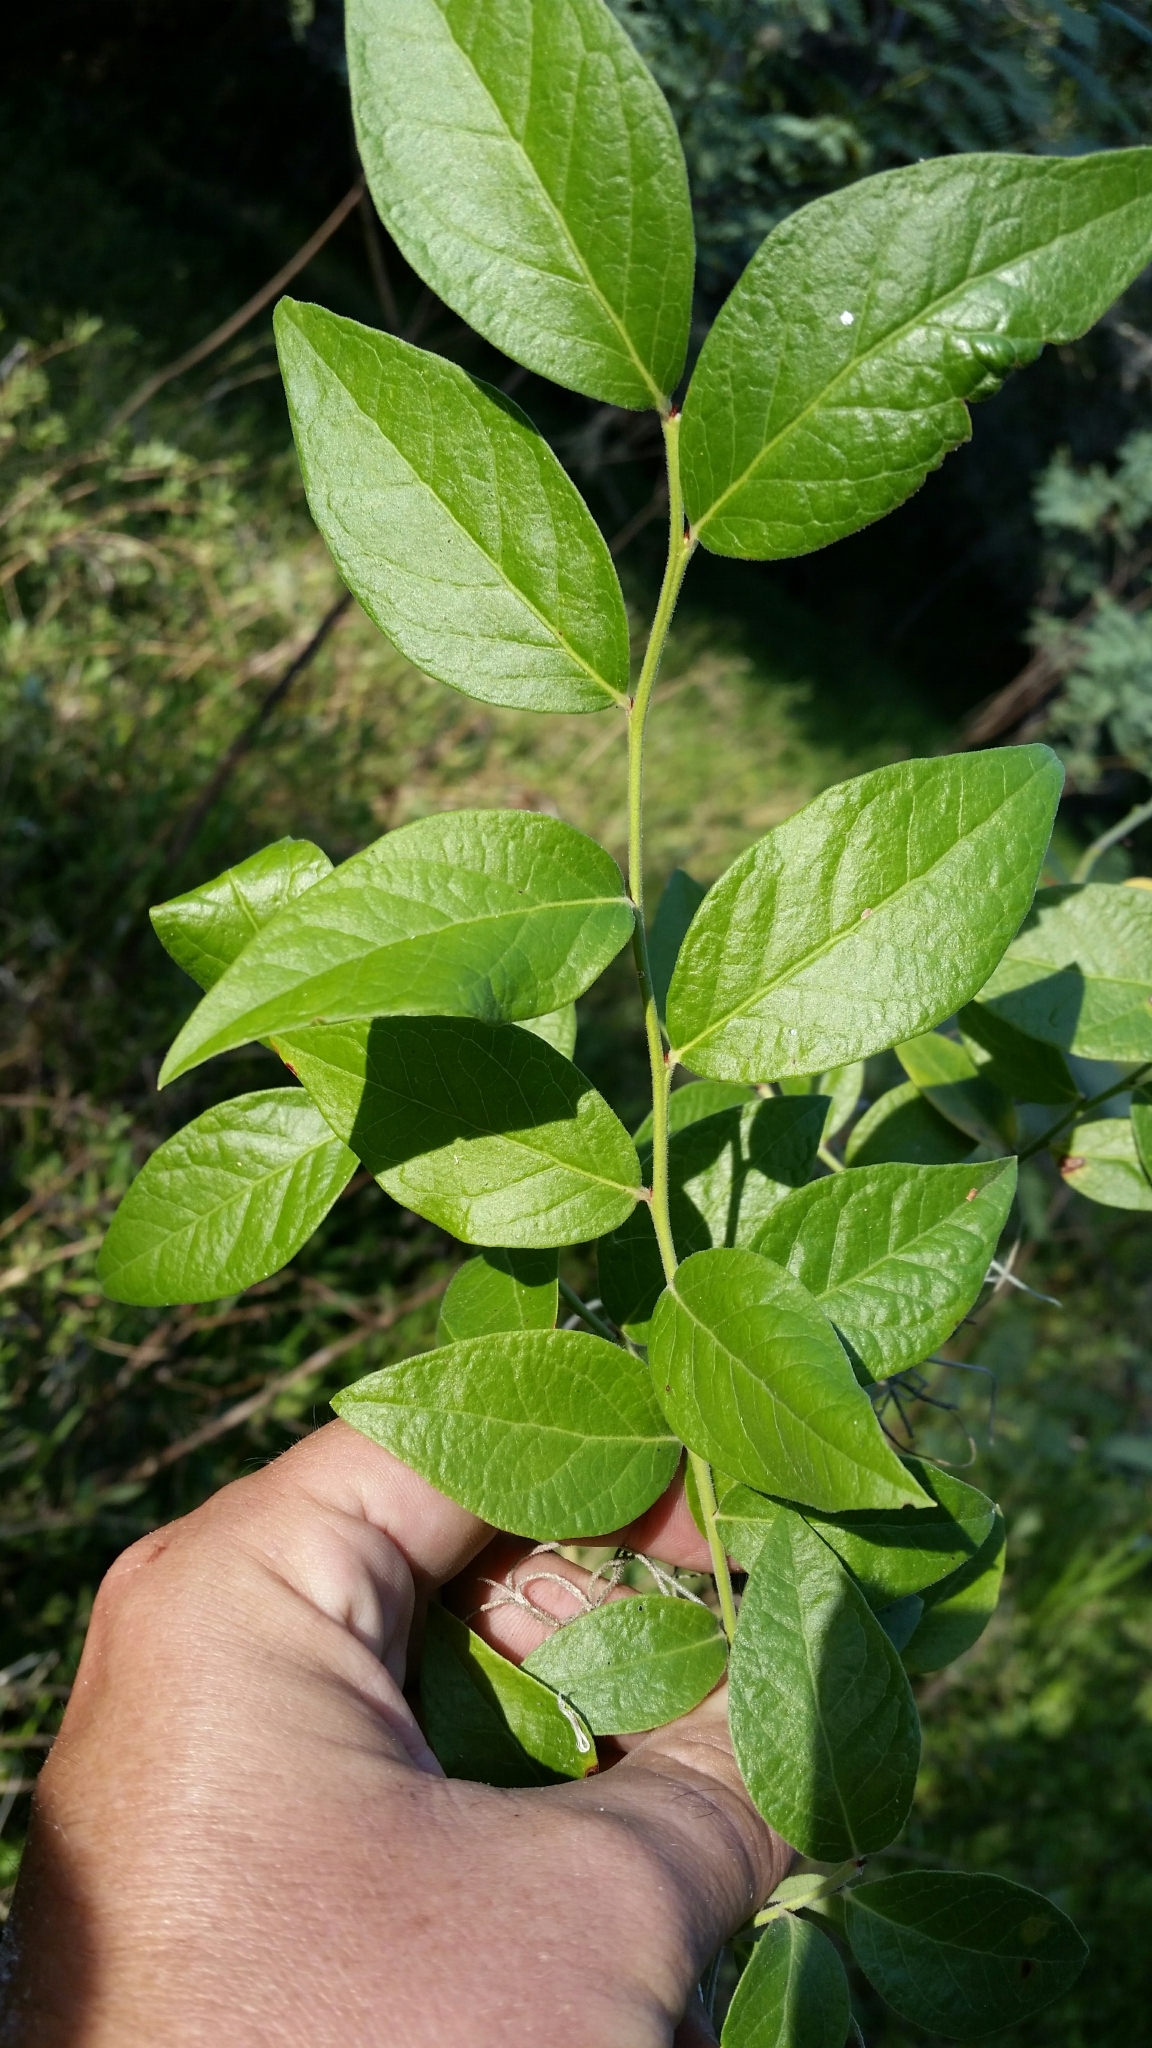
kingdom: Plantae
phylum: Tracheophyta
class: Magnoliopsida
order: Ericales
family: Ericaceae
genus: Vaccinium
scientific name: Vaccinium corymbosum
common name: Blueberry
